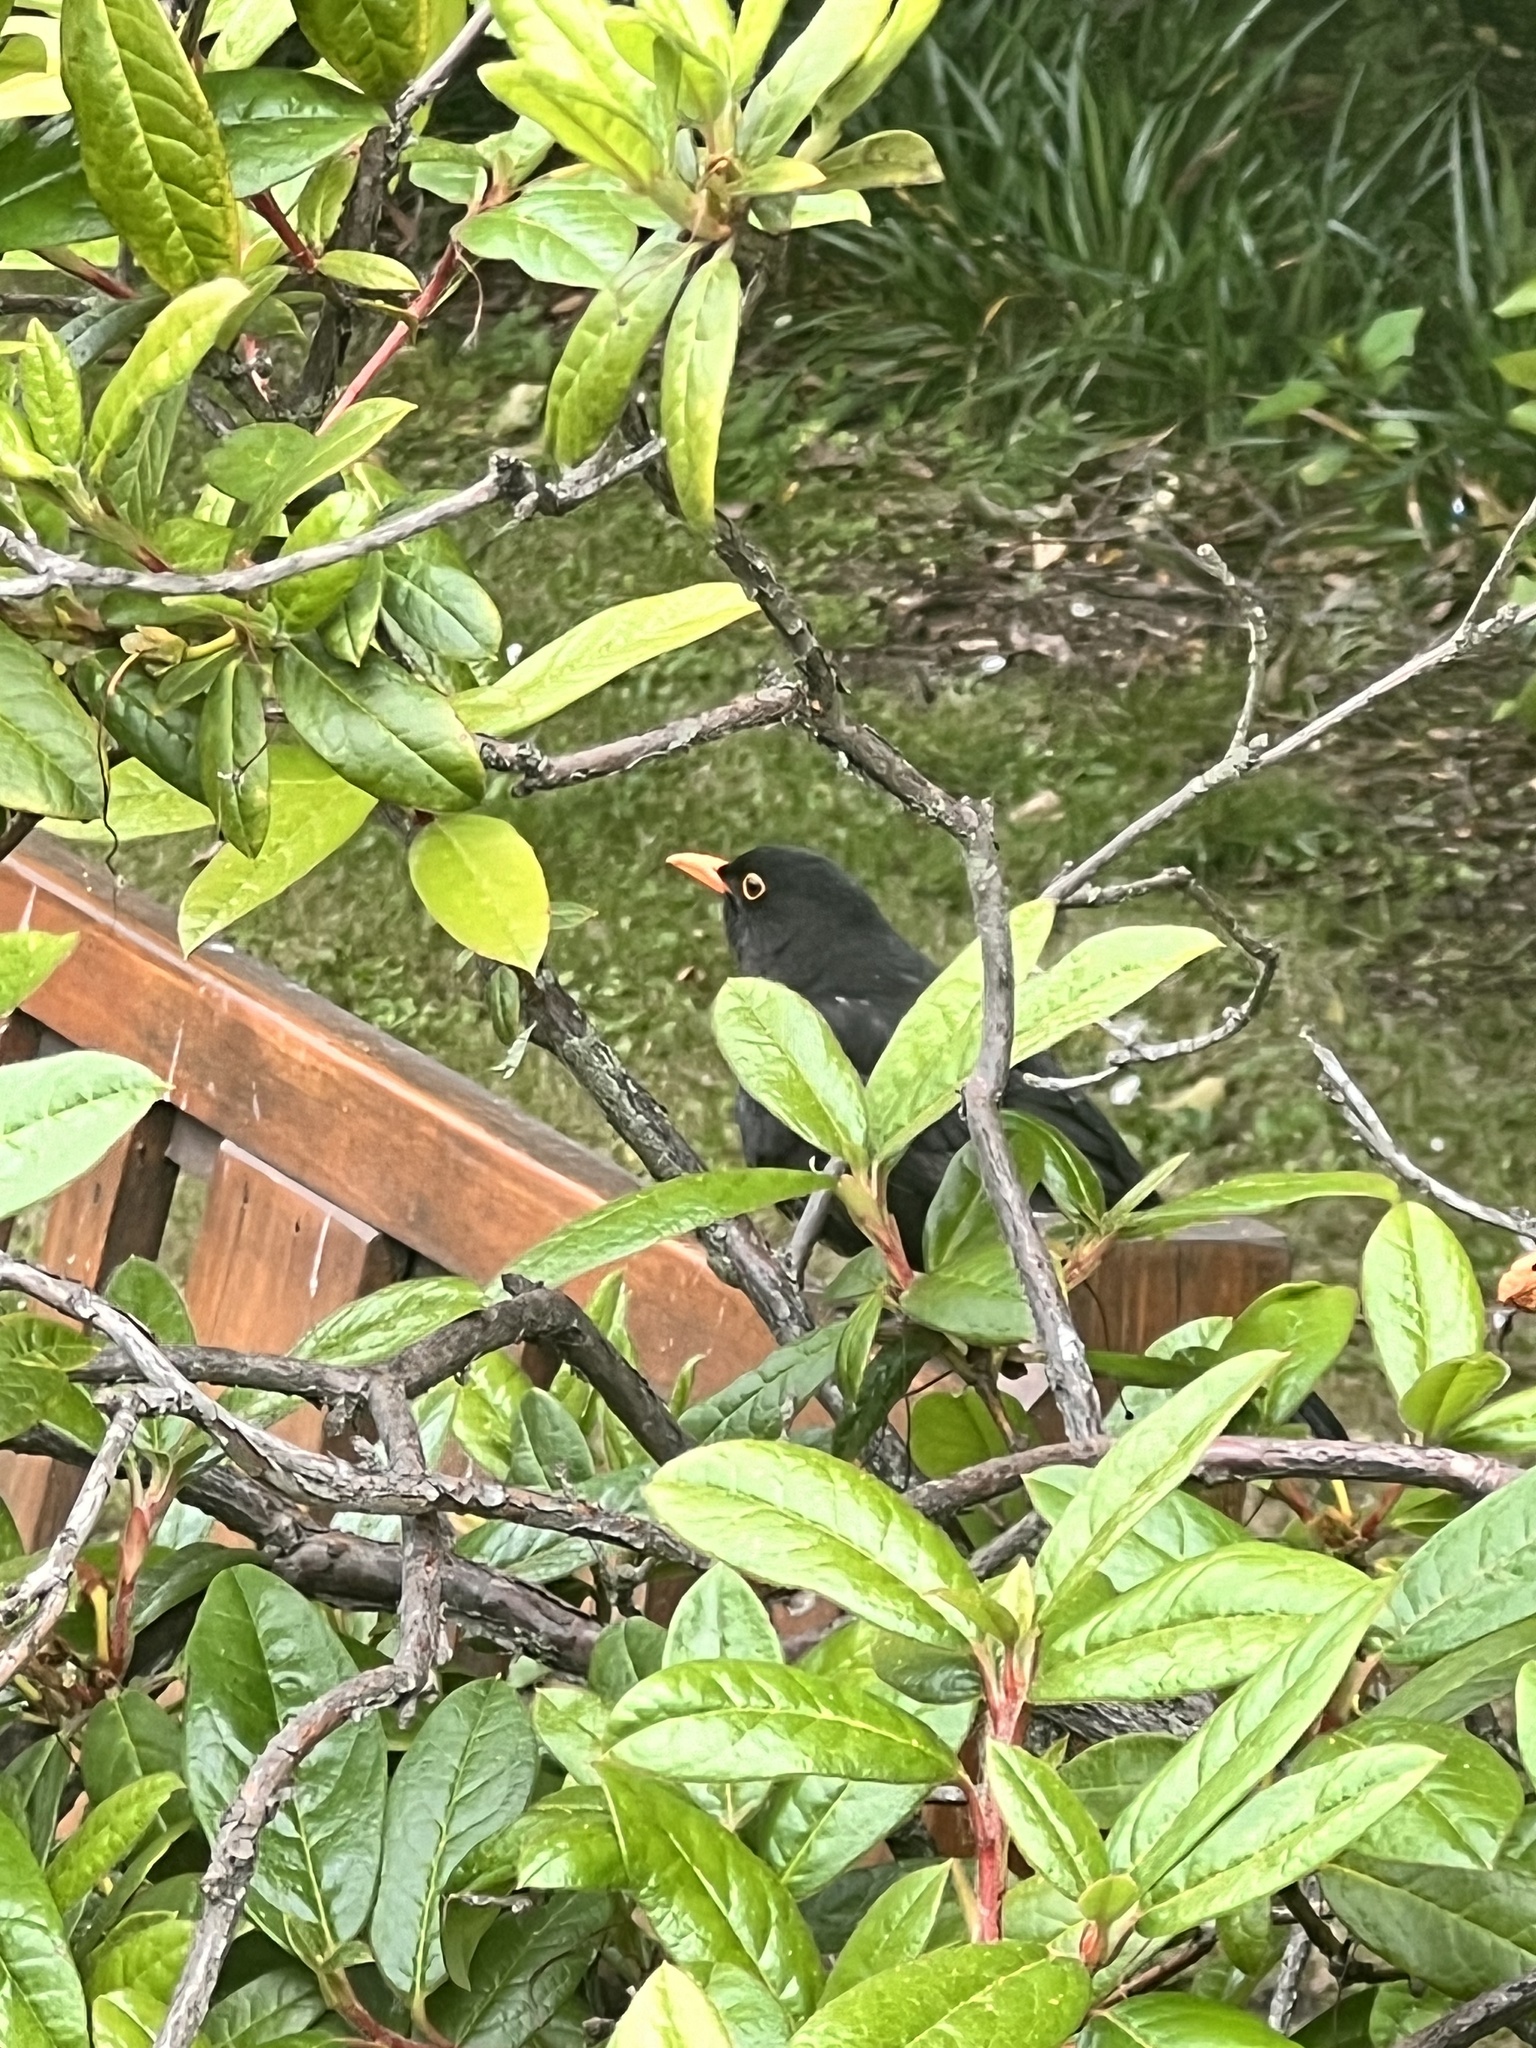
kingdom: Animalia
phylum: Chordata
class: Aves
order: Passeriformes
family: Turdidae
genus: Turdus
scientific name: Turdus merula
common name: Common blackbird
